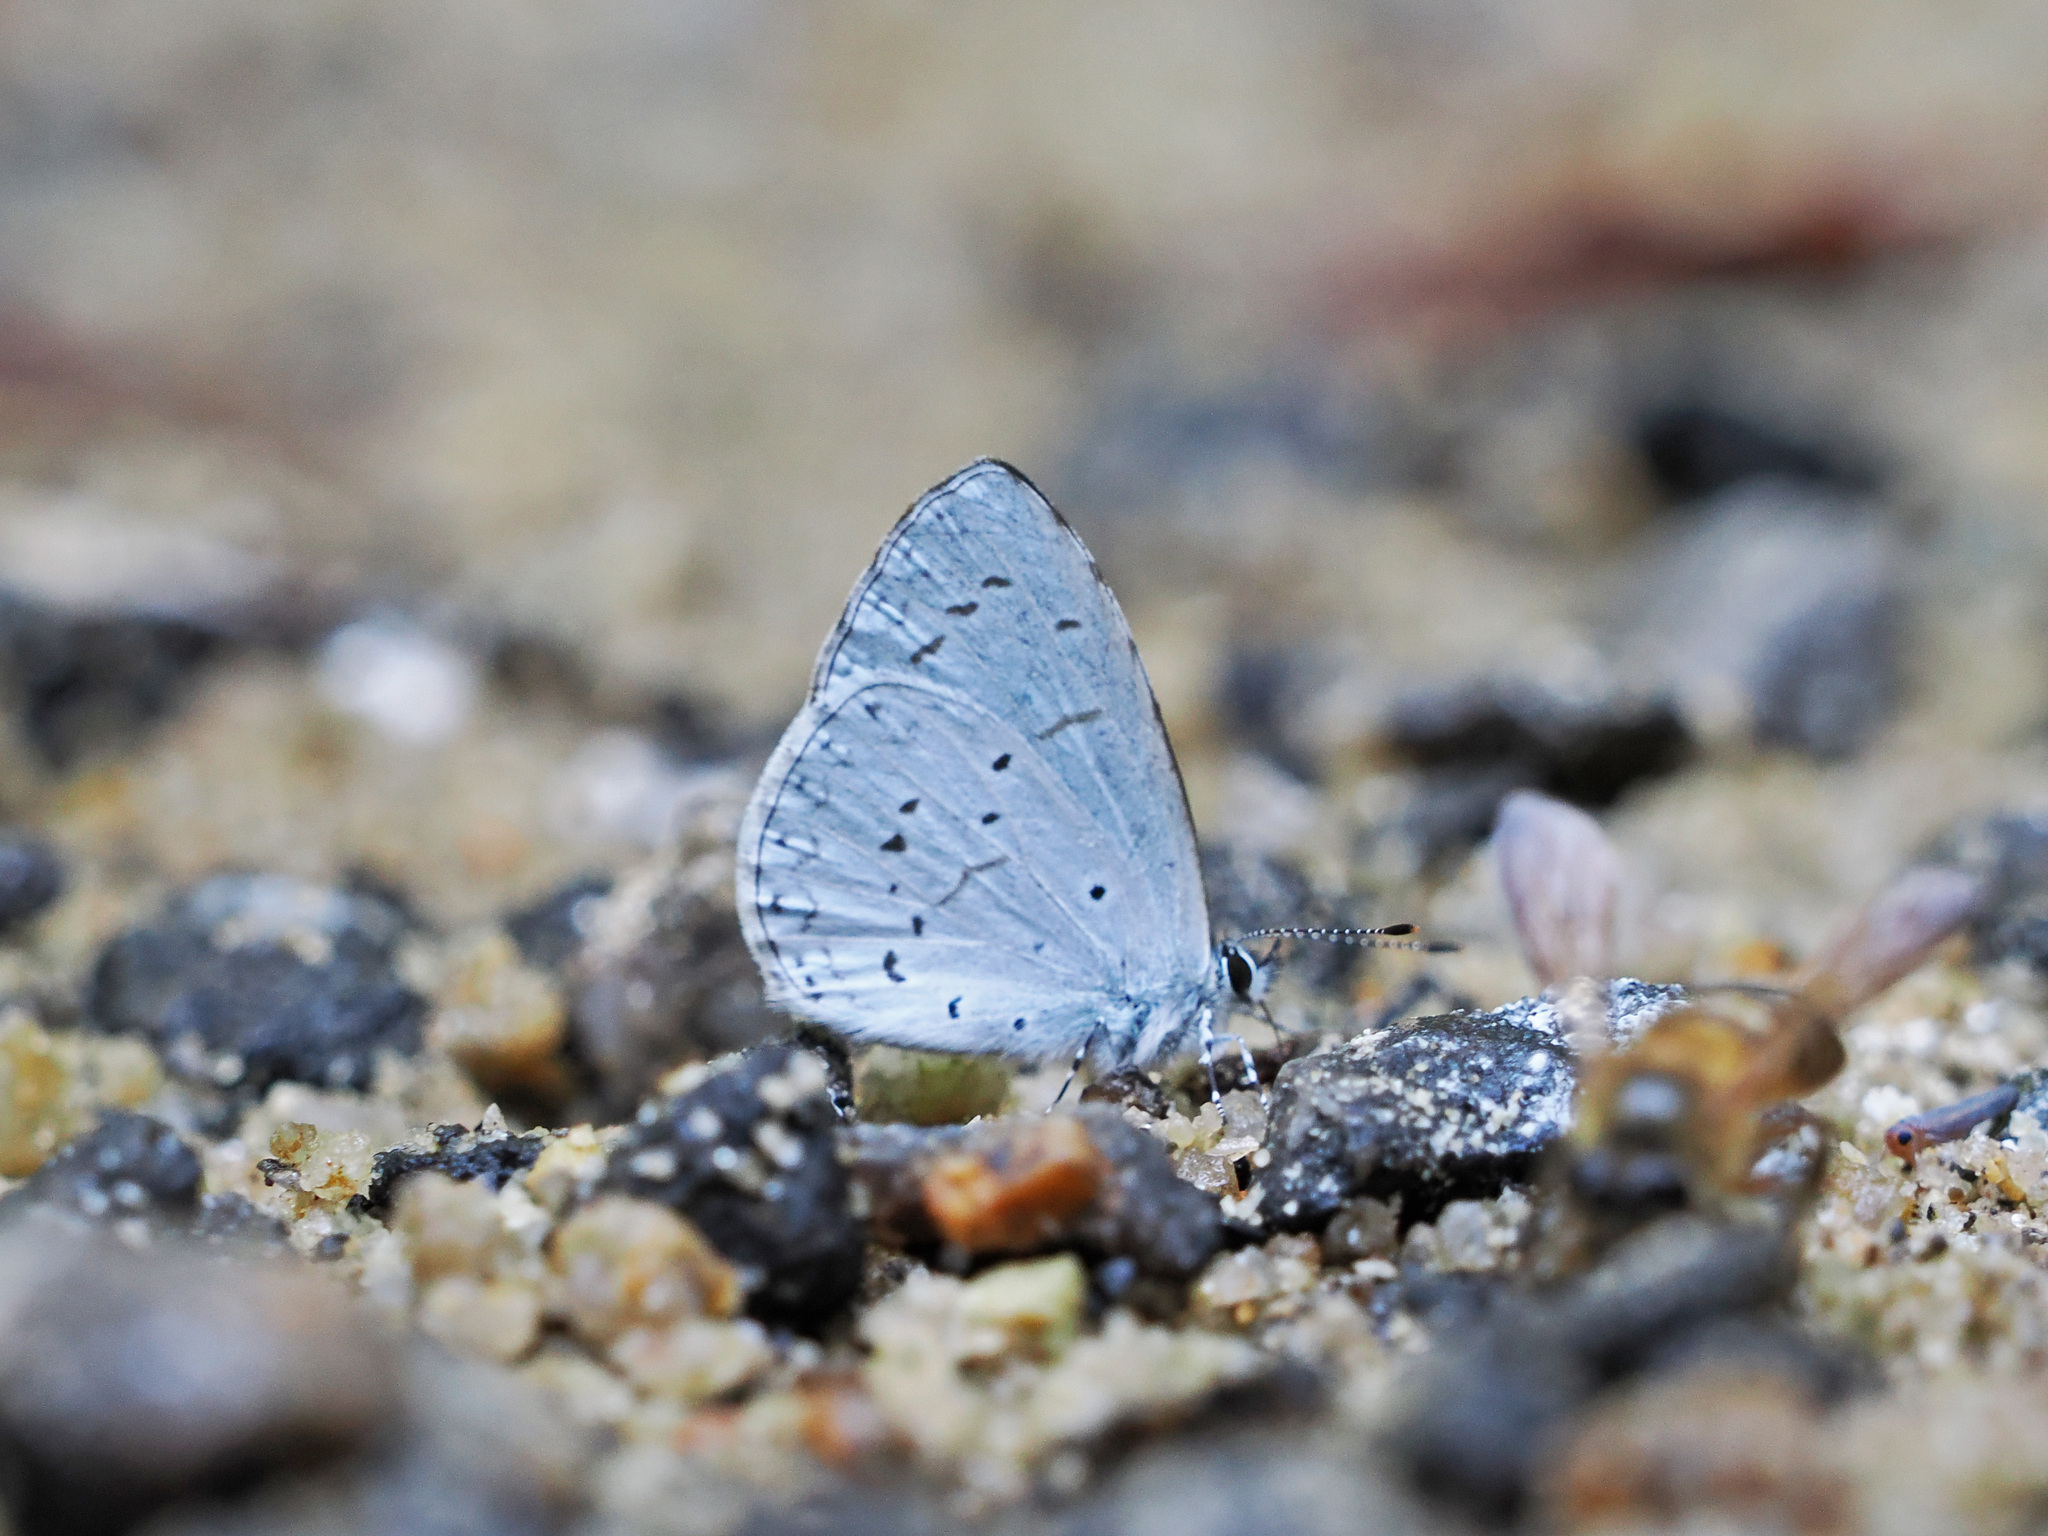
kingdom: Animalia
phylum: Arthropoda
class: Insecta
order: Lepidoptera
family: Lycaenidae
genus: Udara
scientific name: Udara dilectus
